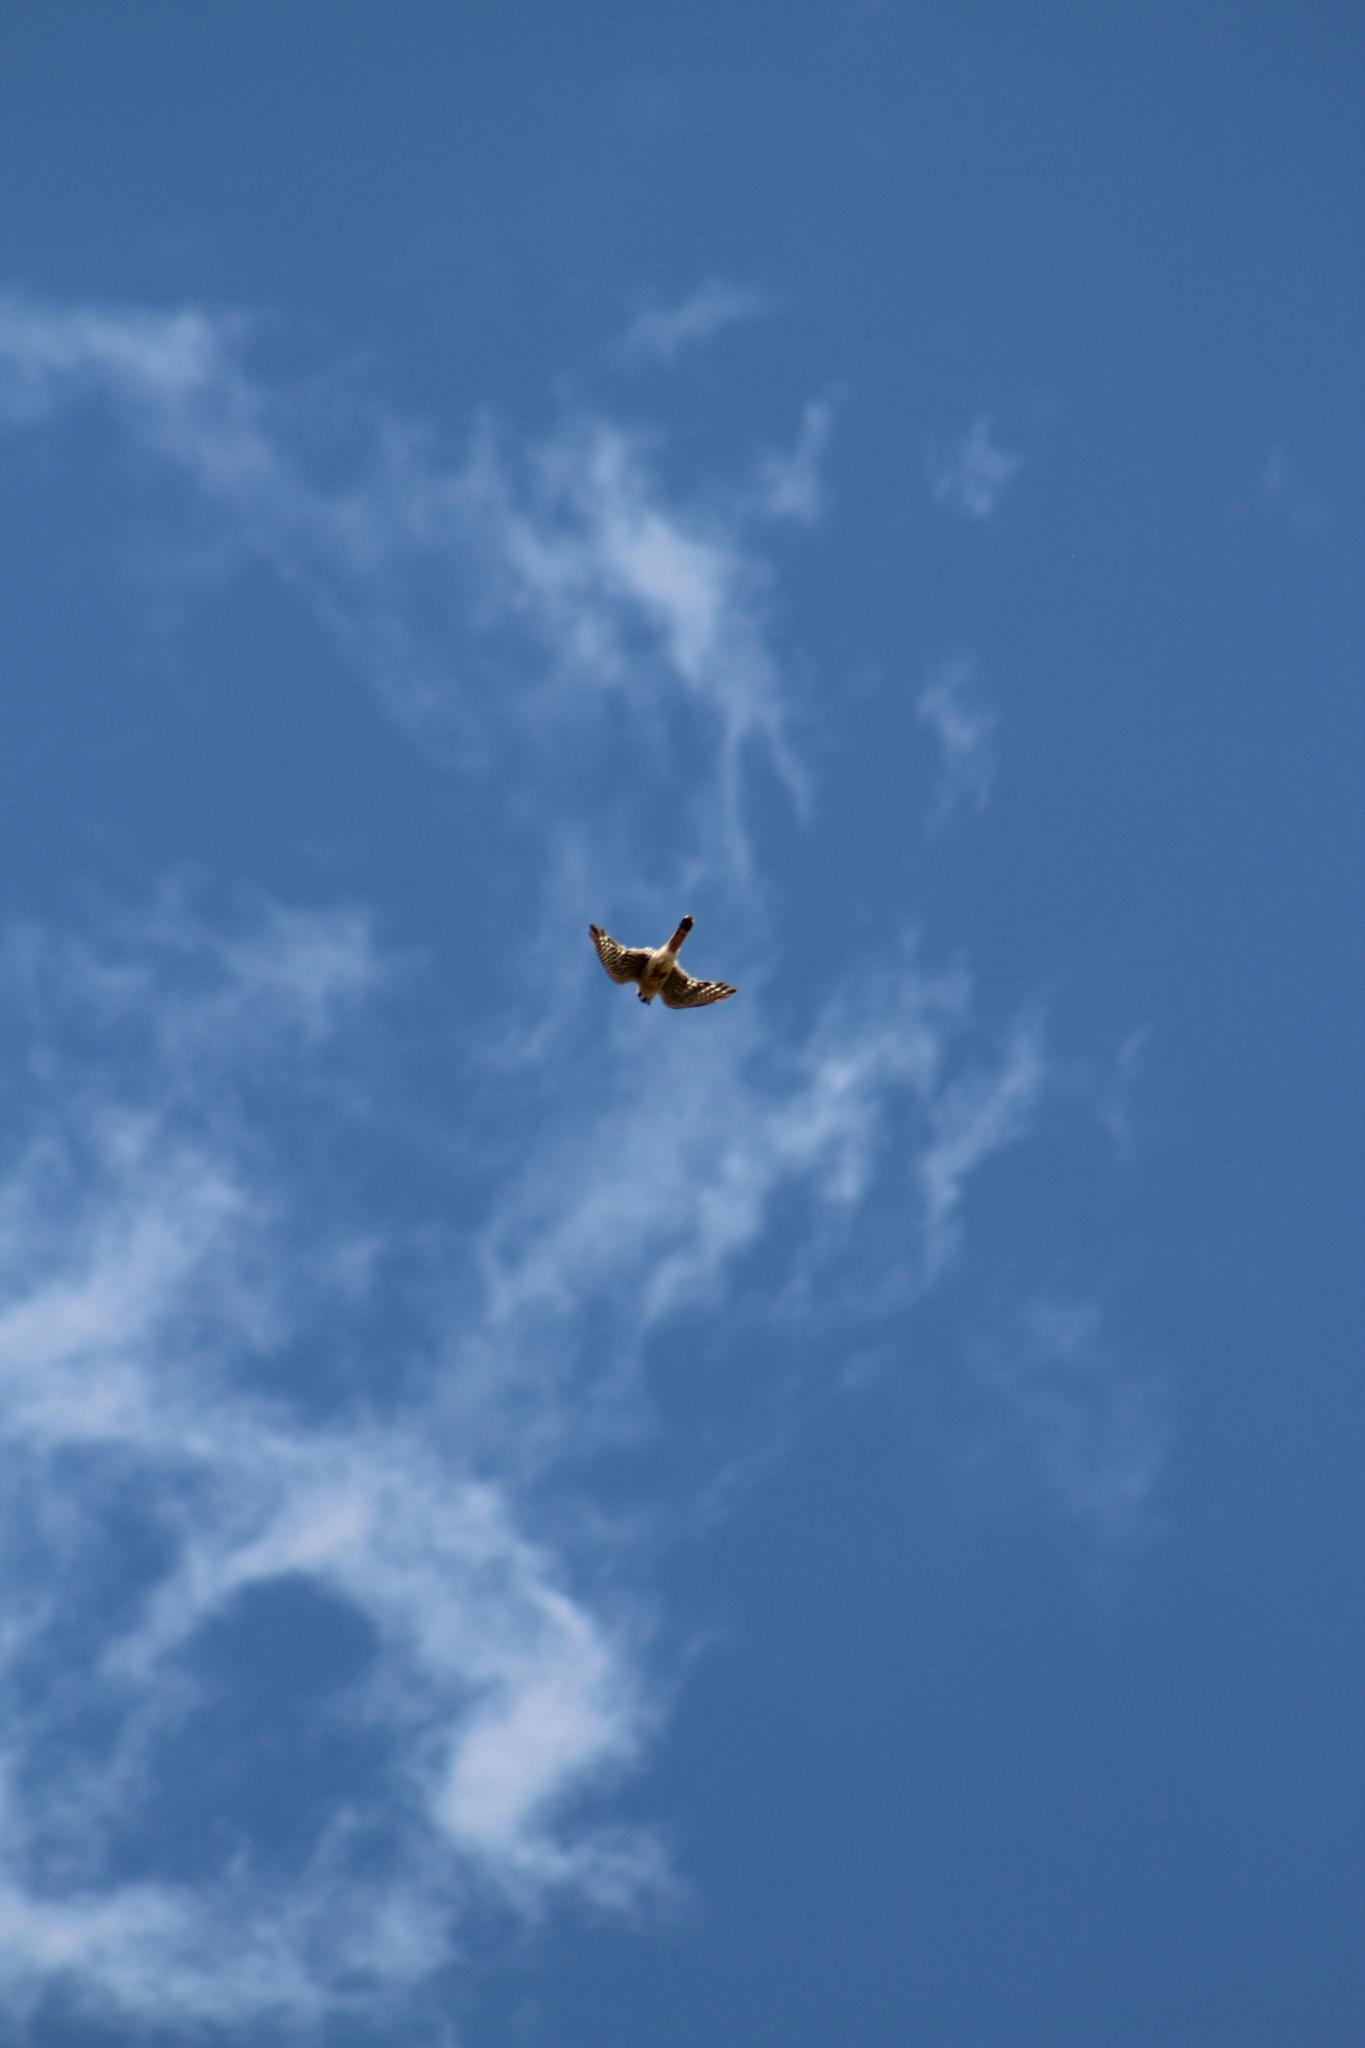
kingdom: Animalia
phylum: Chordata
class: Aves
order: Falconiformes
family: Falconidae
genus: Falco
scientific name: Falco sparverius
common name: American kestrel
